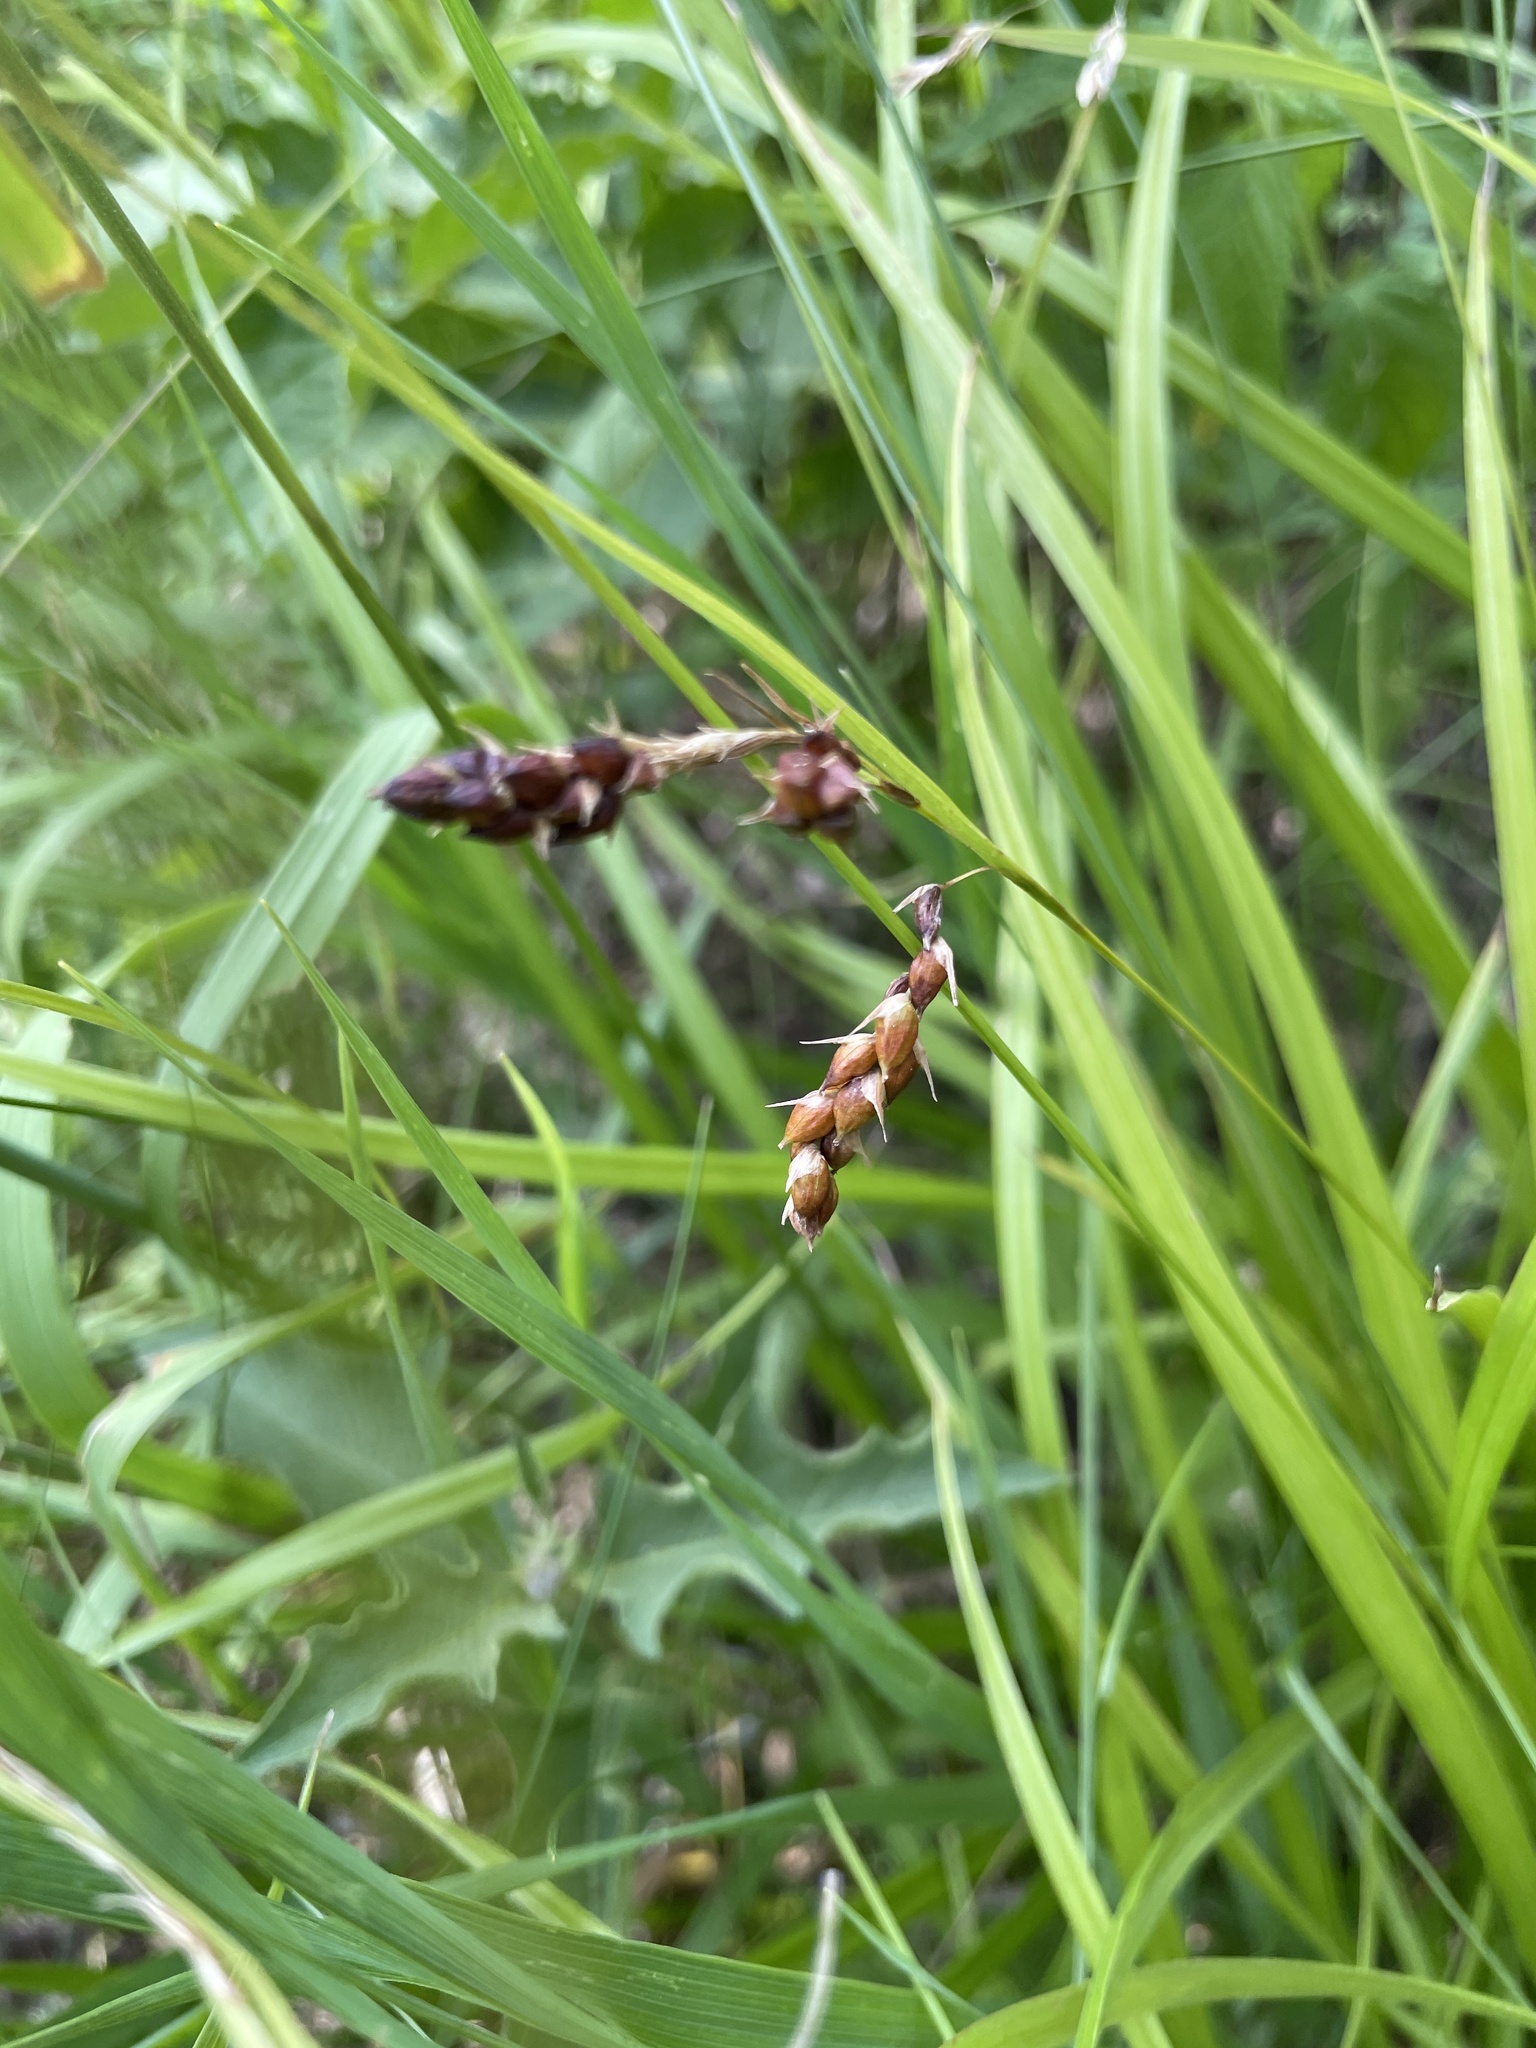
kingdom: Plantae
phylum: Tracheophyta
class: Liliopsida
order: Poales
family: Cyperaceae
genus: Carex
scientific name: Carex davisii
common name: Davis' sedge
